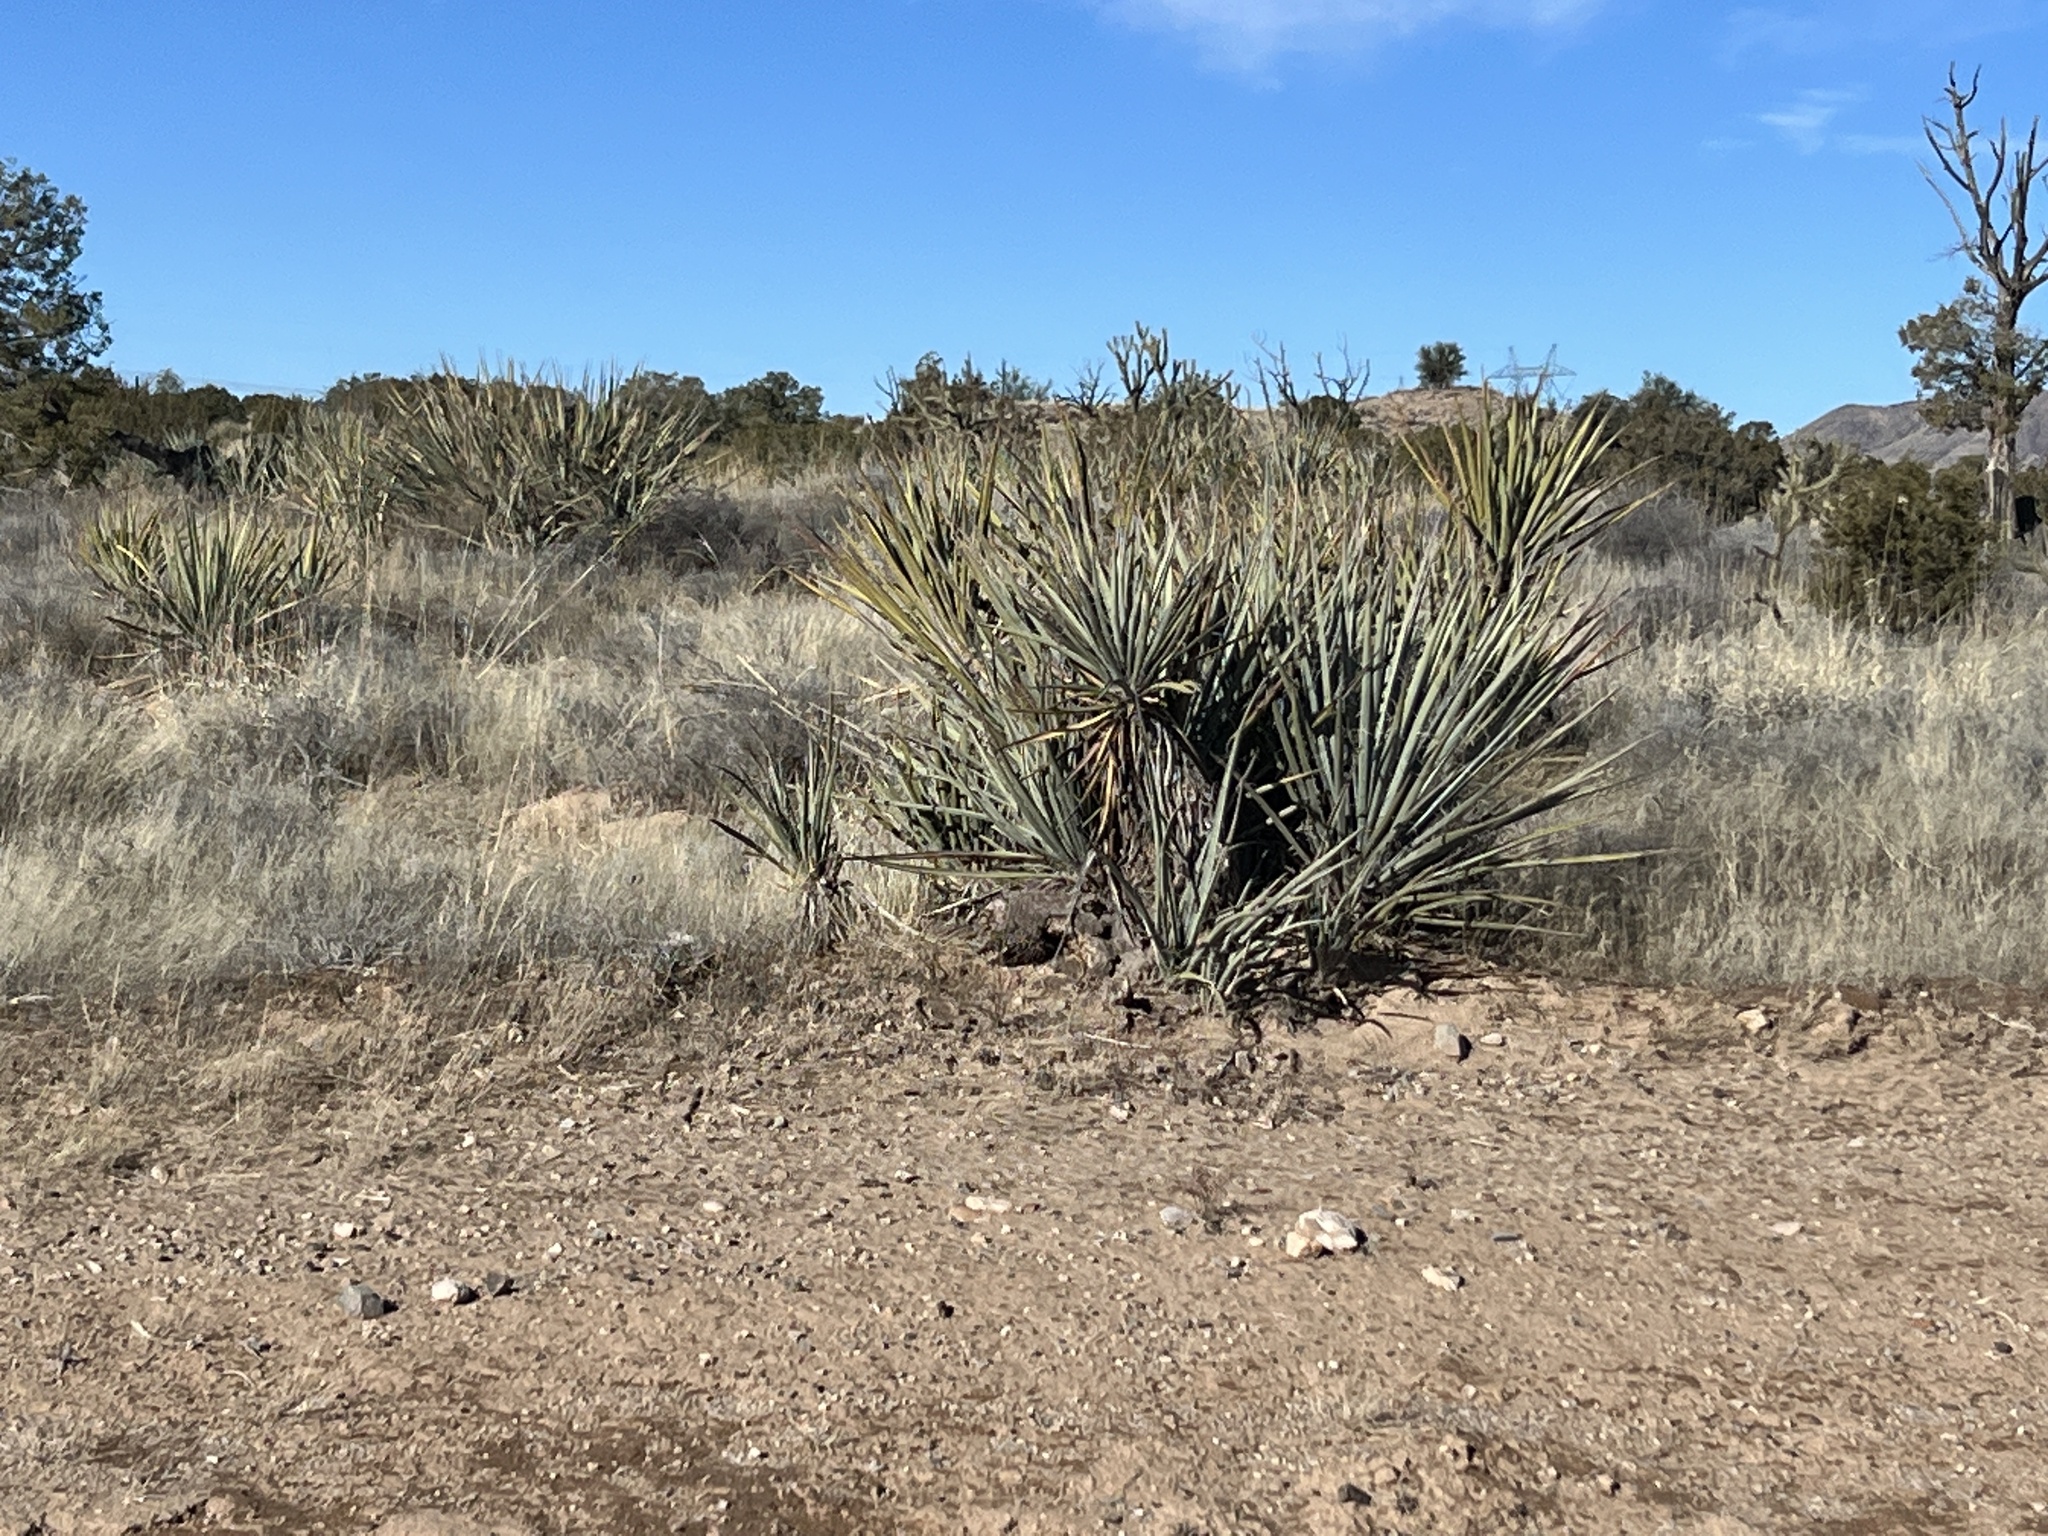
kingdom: Plantae
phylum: Tracheophyta
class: Liliopsida
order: Asparagales
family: Asparagaceae
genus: Yucca
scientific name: Yucca baccata
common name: Banana yucca
